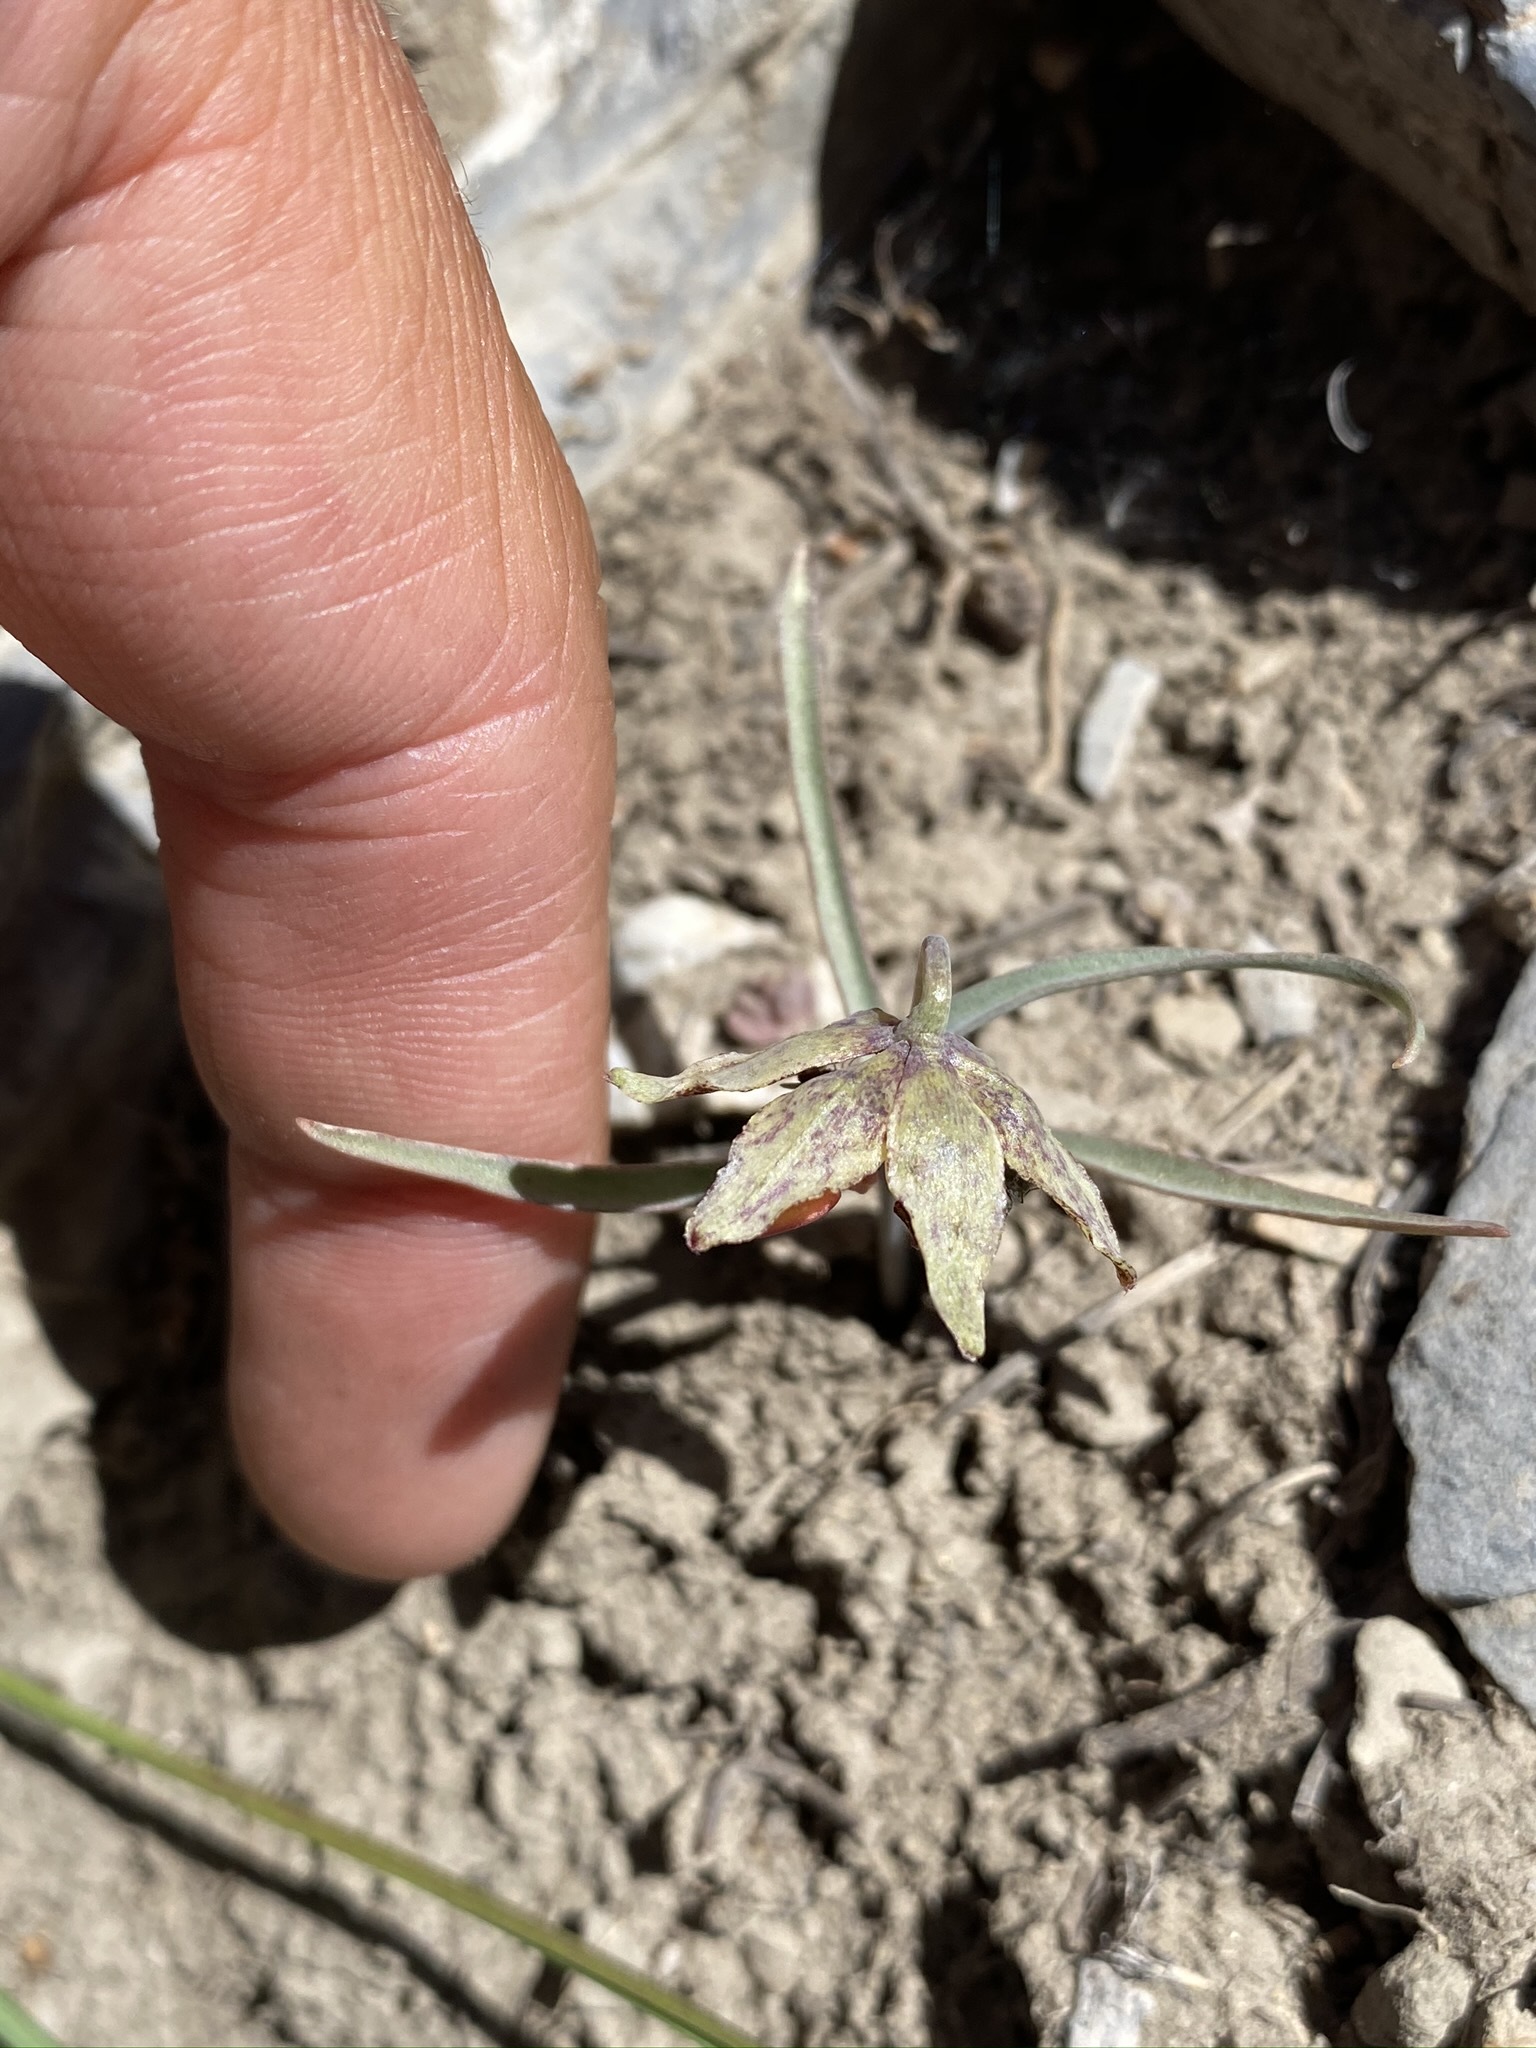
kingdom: Plantae
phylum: Tracheophyta
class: Liliopsida
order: Liliales
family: Liliaceae
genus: Fritillaria
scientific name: Fritillaria atropurpurea
